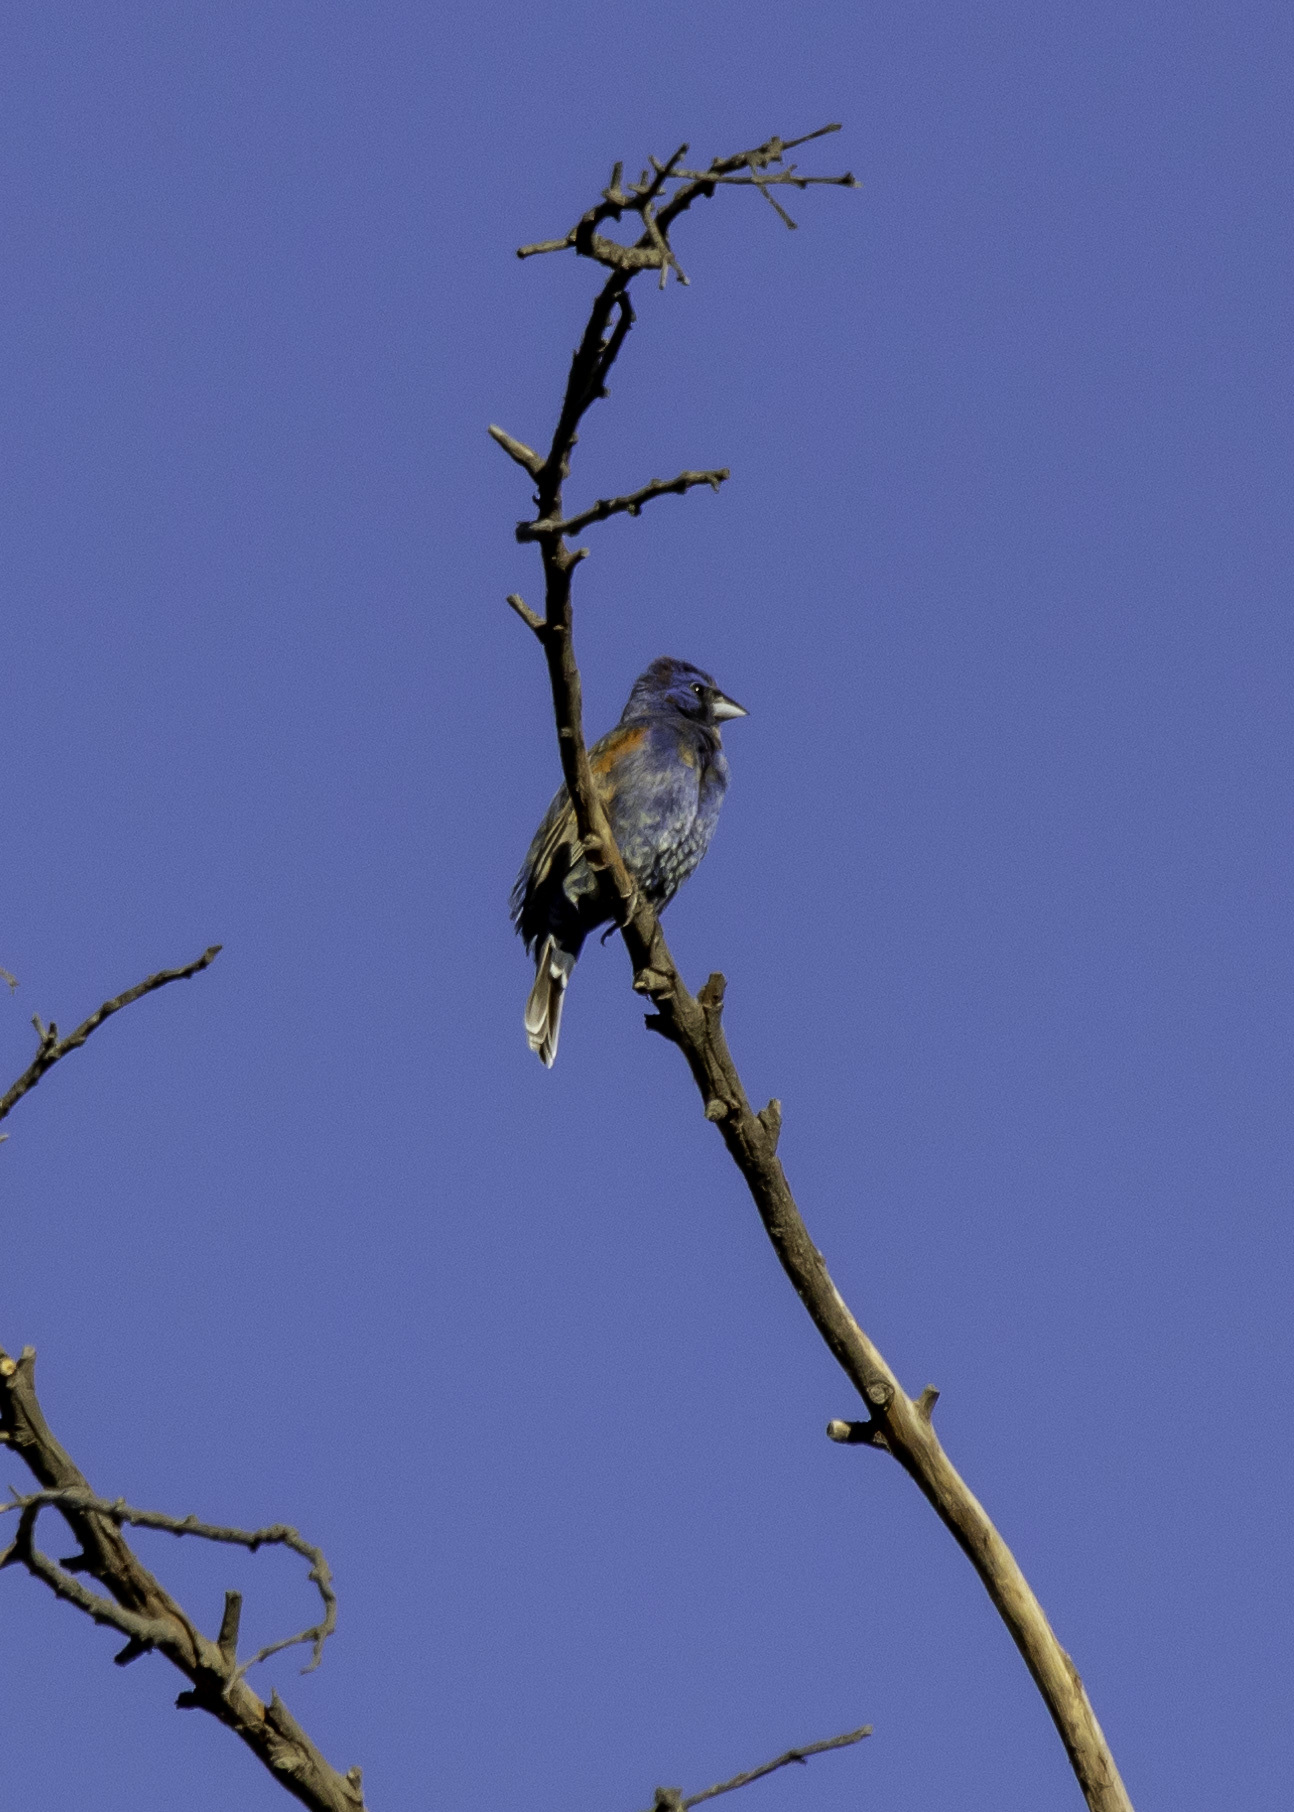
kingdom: Animalia
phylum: Chordata
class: Aves
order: Passeriformes
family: Cardinalidae
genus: Passerina
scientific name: Passerina caerulea
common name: Blue grosbeak
